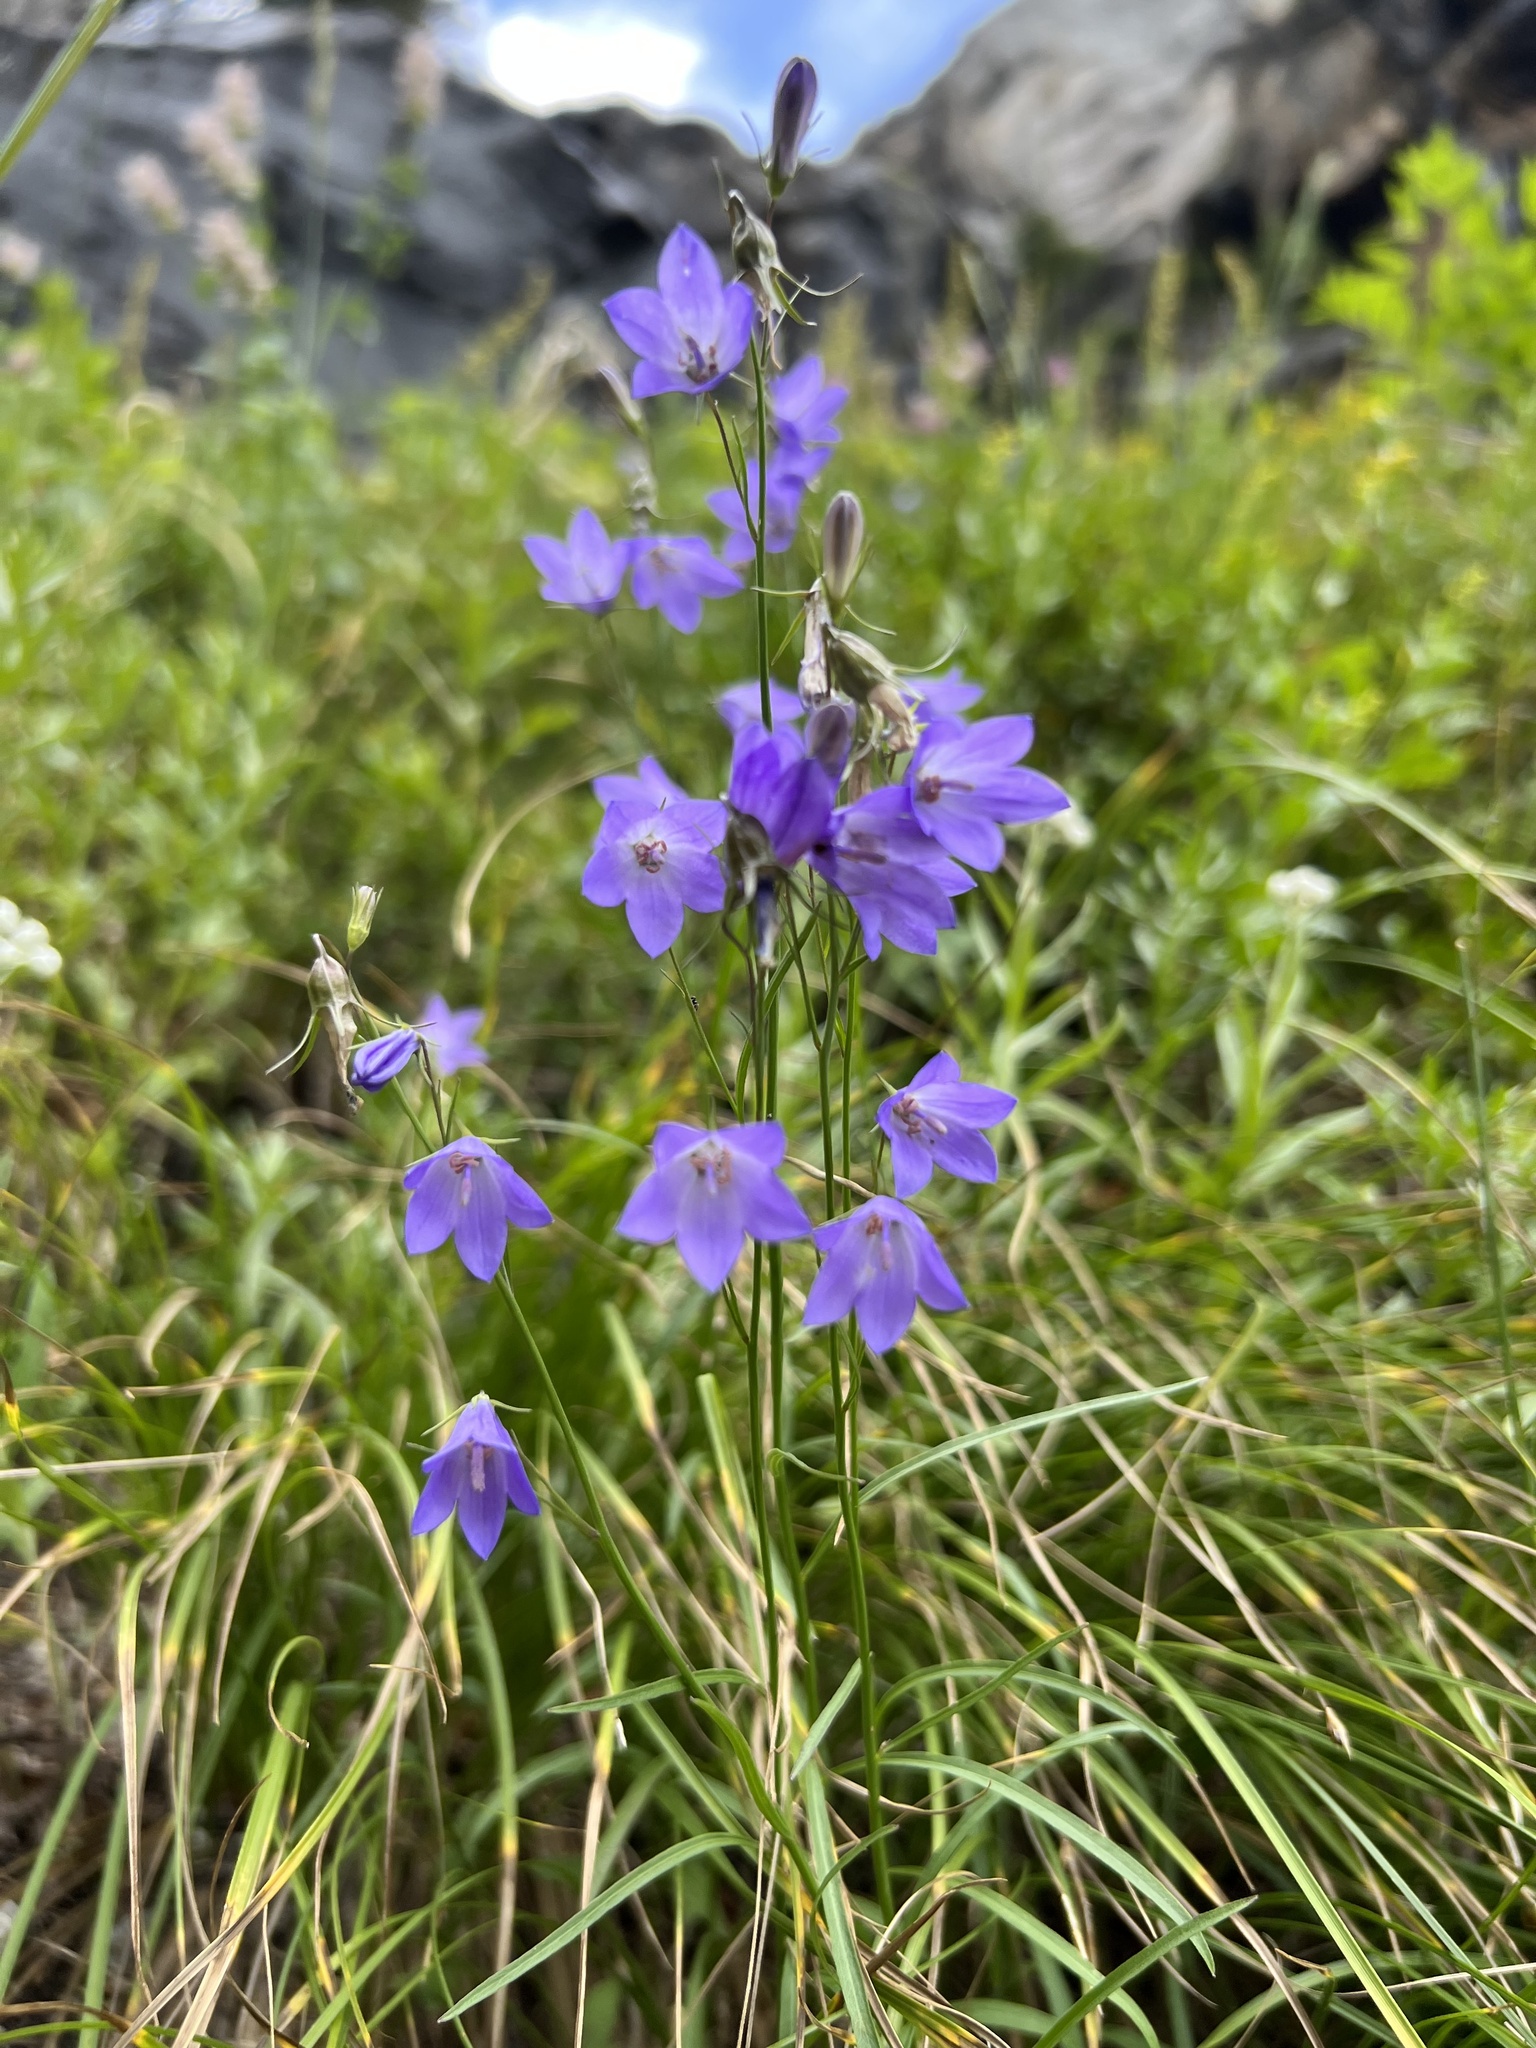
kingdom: Plantae
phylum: Tracheophyta
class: Magnoliopsida
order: Asterales
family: Campanulaceae
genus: Campanula
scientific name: Campanula petiolata
